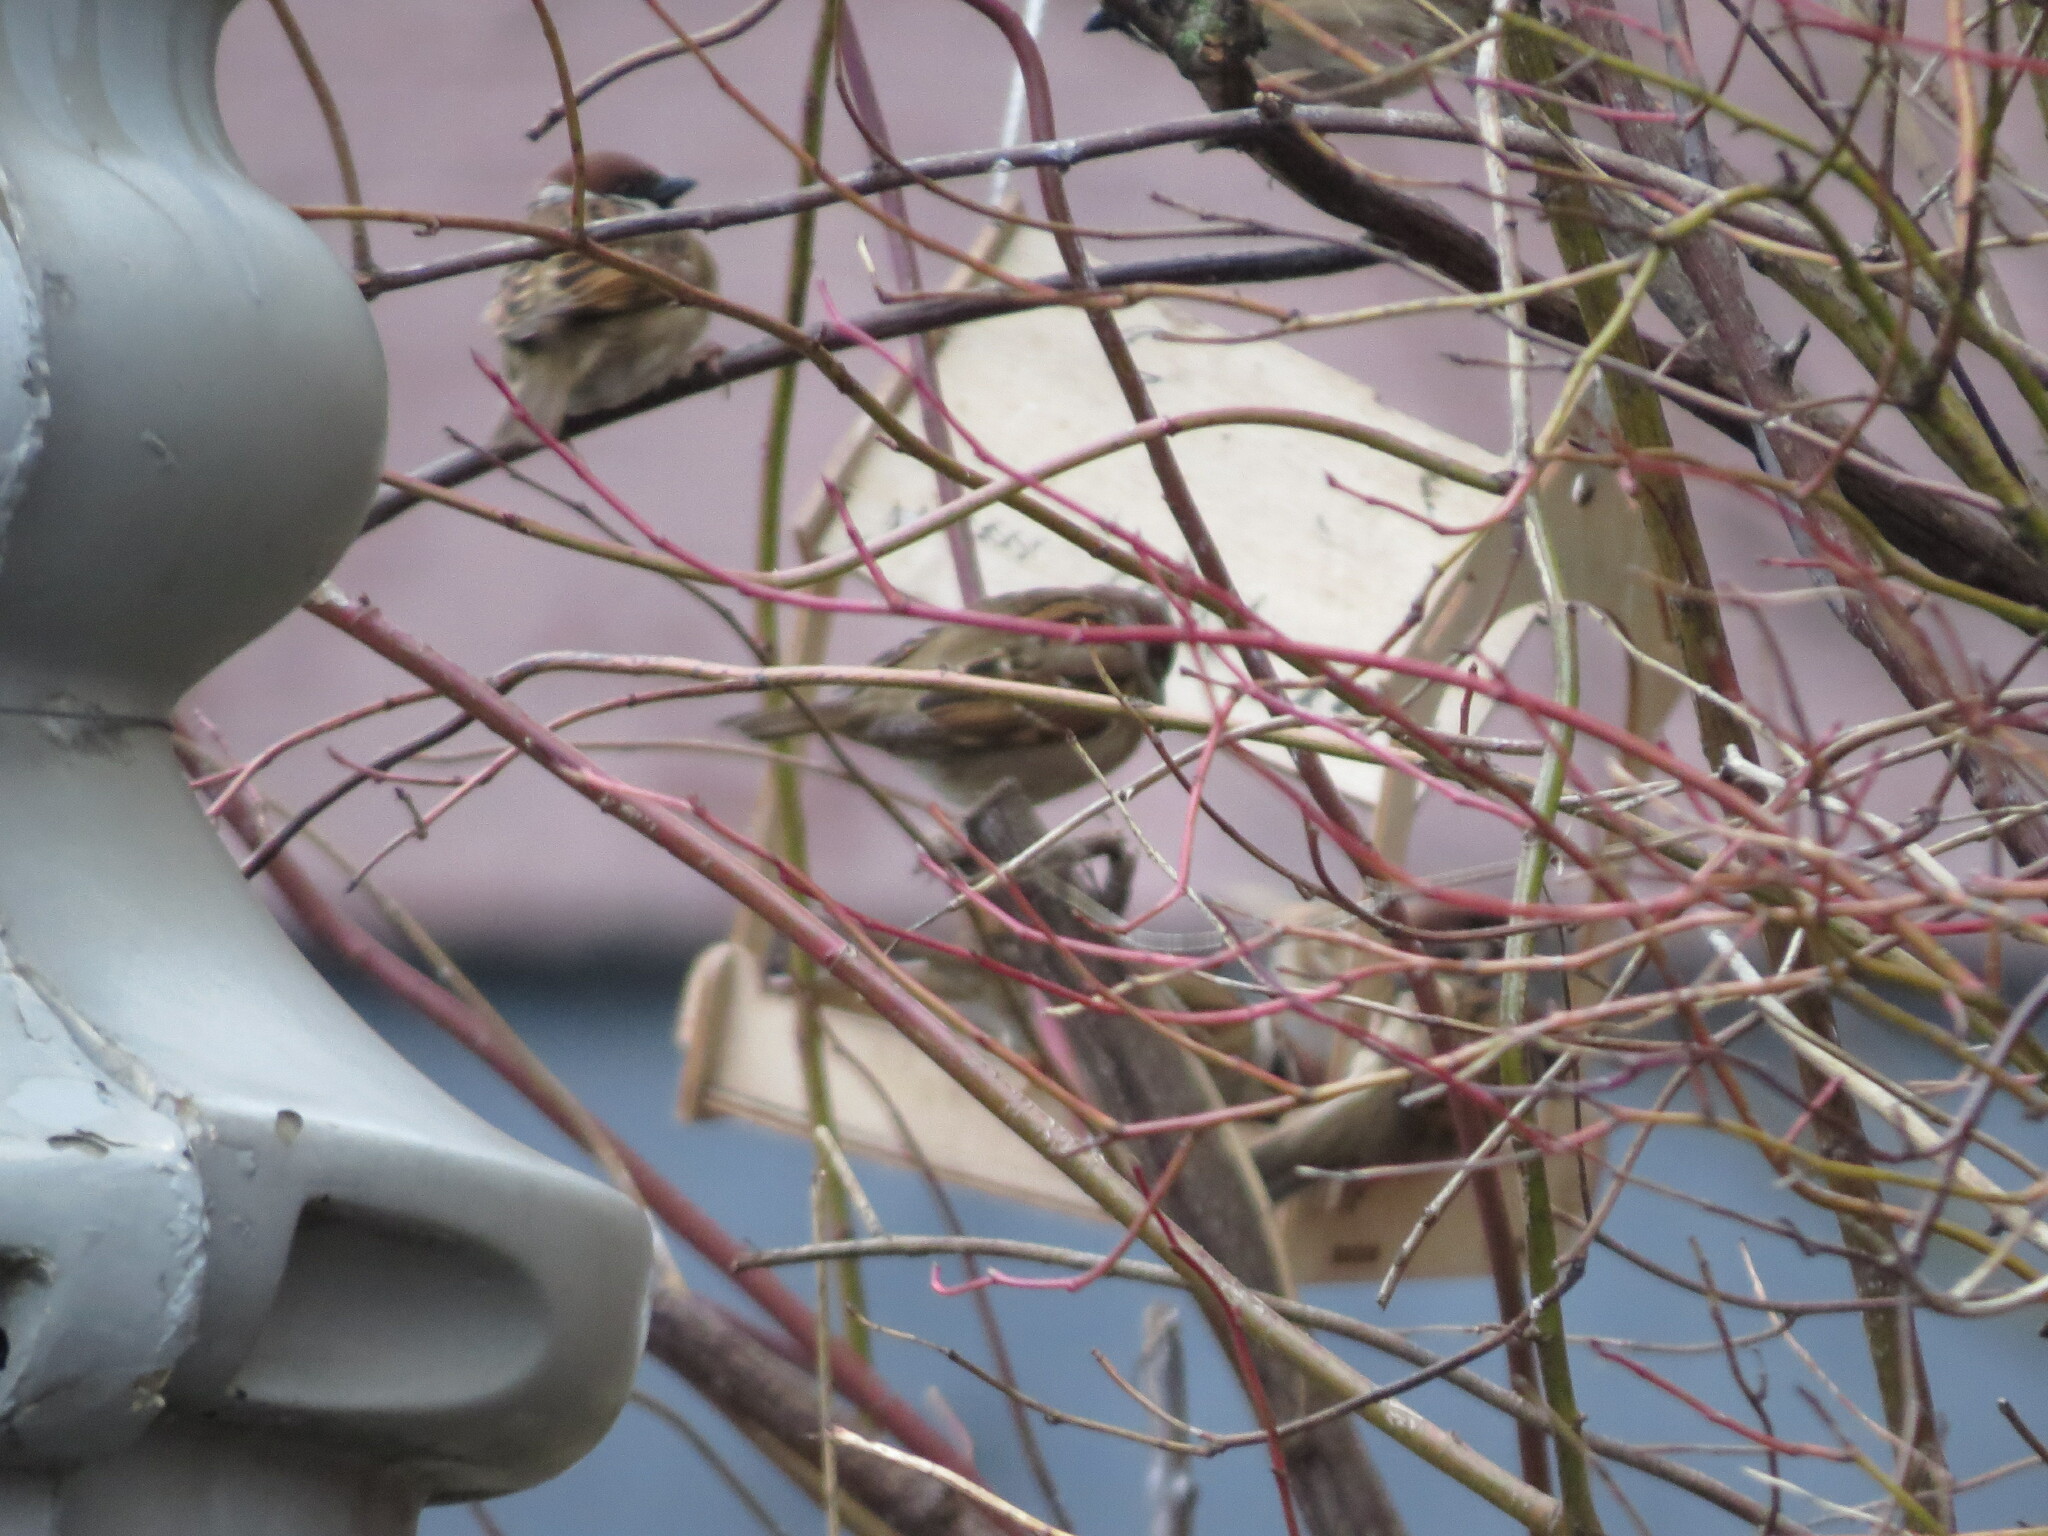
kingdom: Animalia
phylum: Chordata
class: Aves
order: Passeriformes
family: Passeridae
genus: Passer
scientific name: Passer montanus
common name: Eurasian tree sparrow
